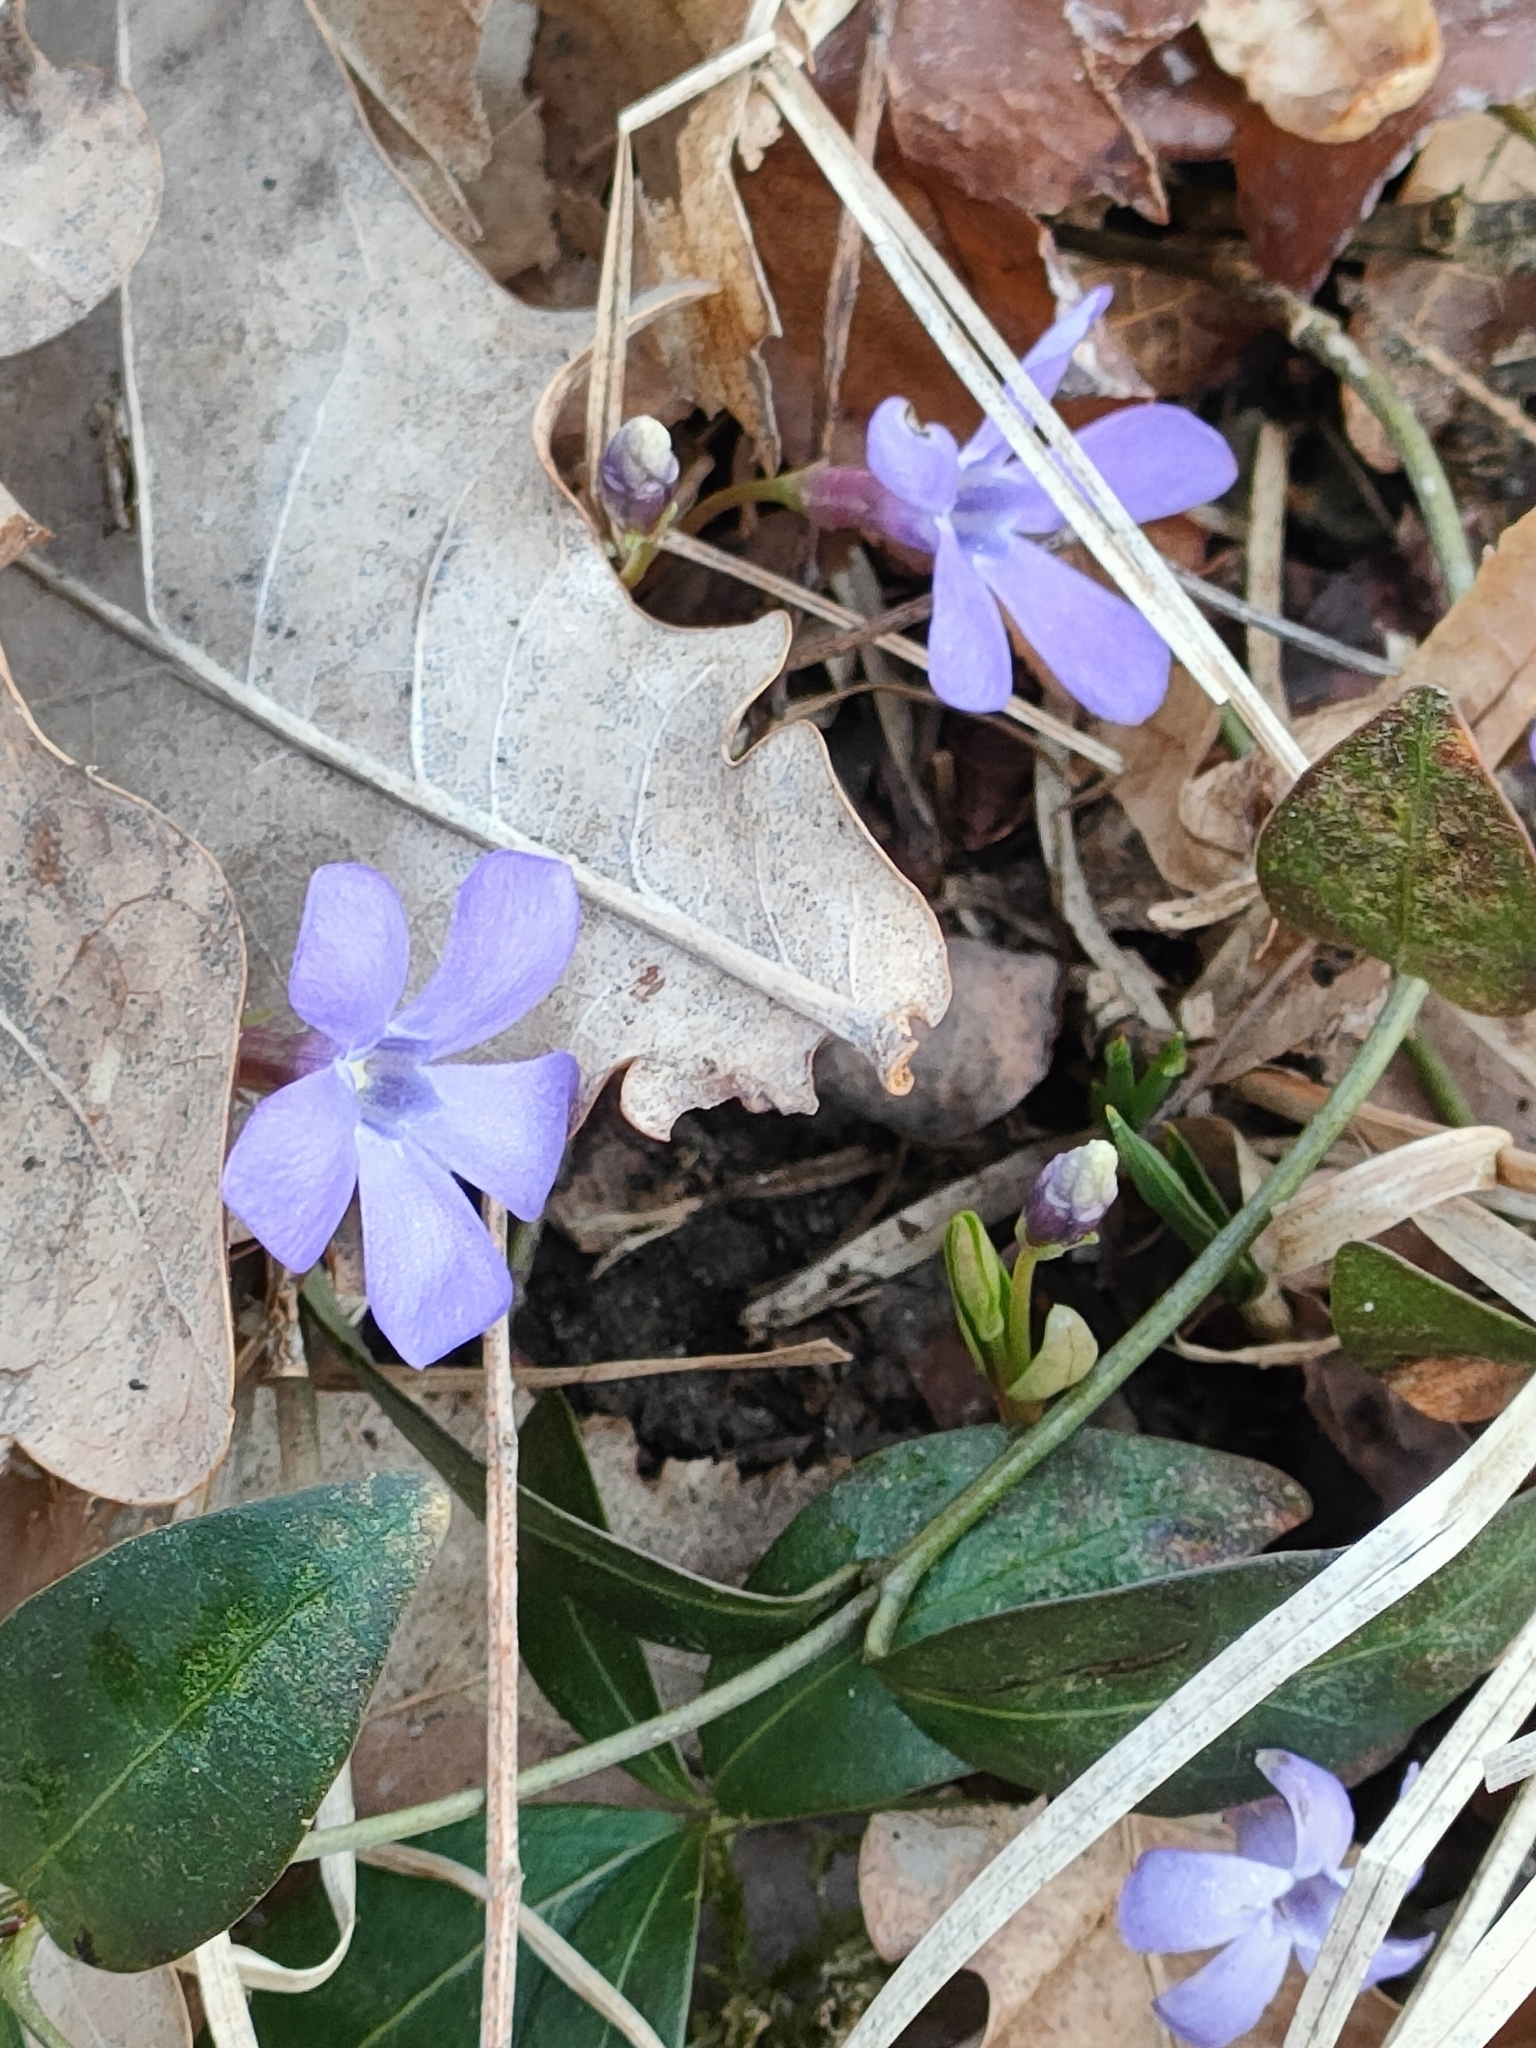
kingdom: Plantae
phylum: Tracheophyta
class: Magnoliopsida
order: Gentianales
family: Apocynaceae
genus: Vinca
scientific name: Vinca minor
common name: Lesser periwinkle
